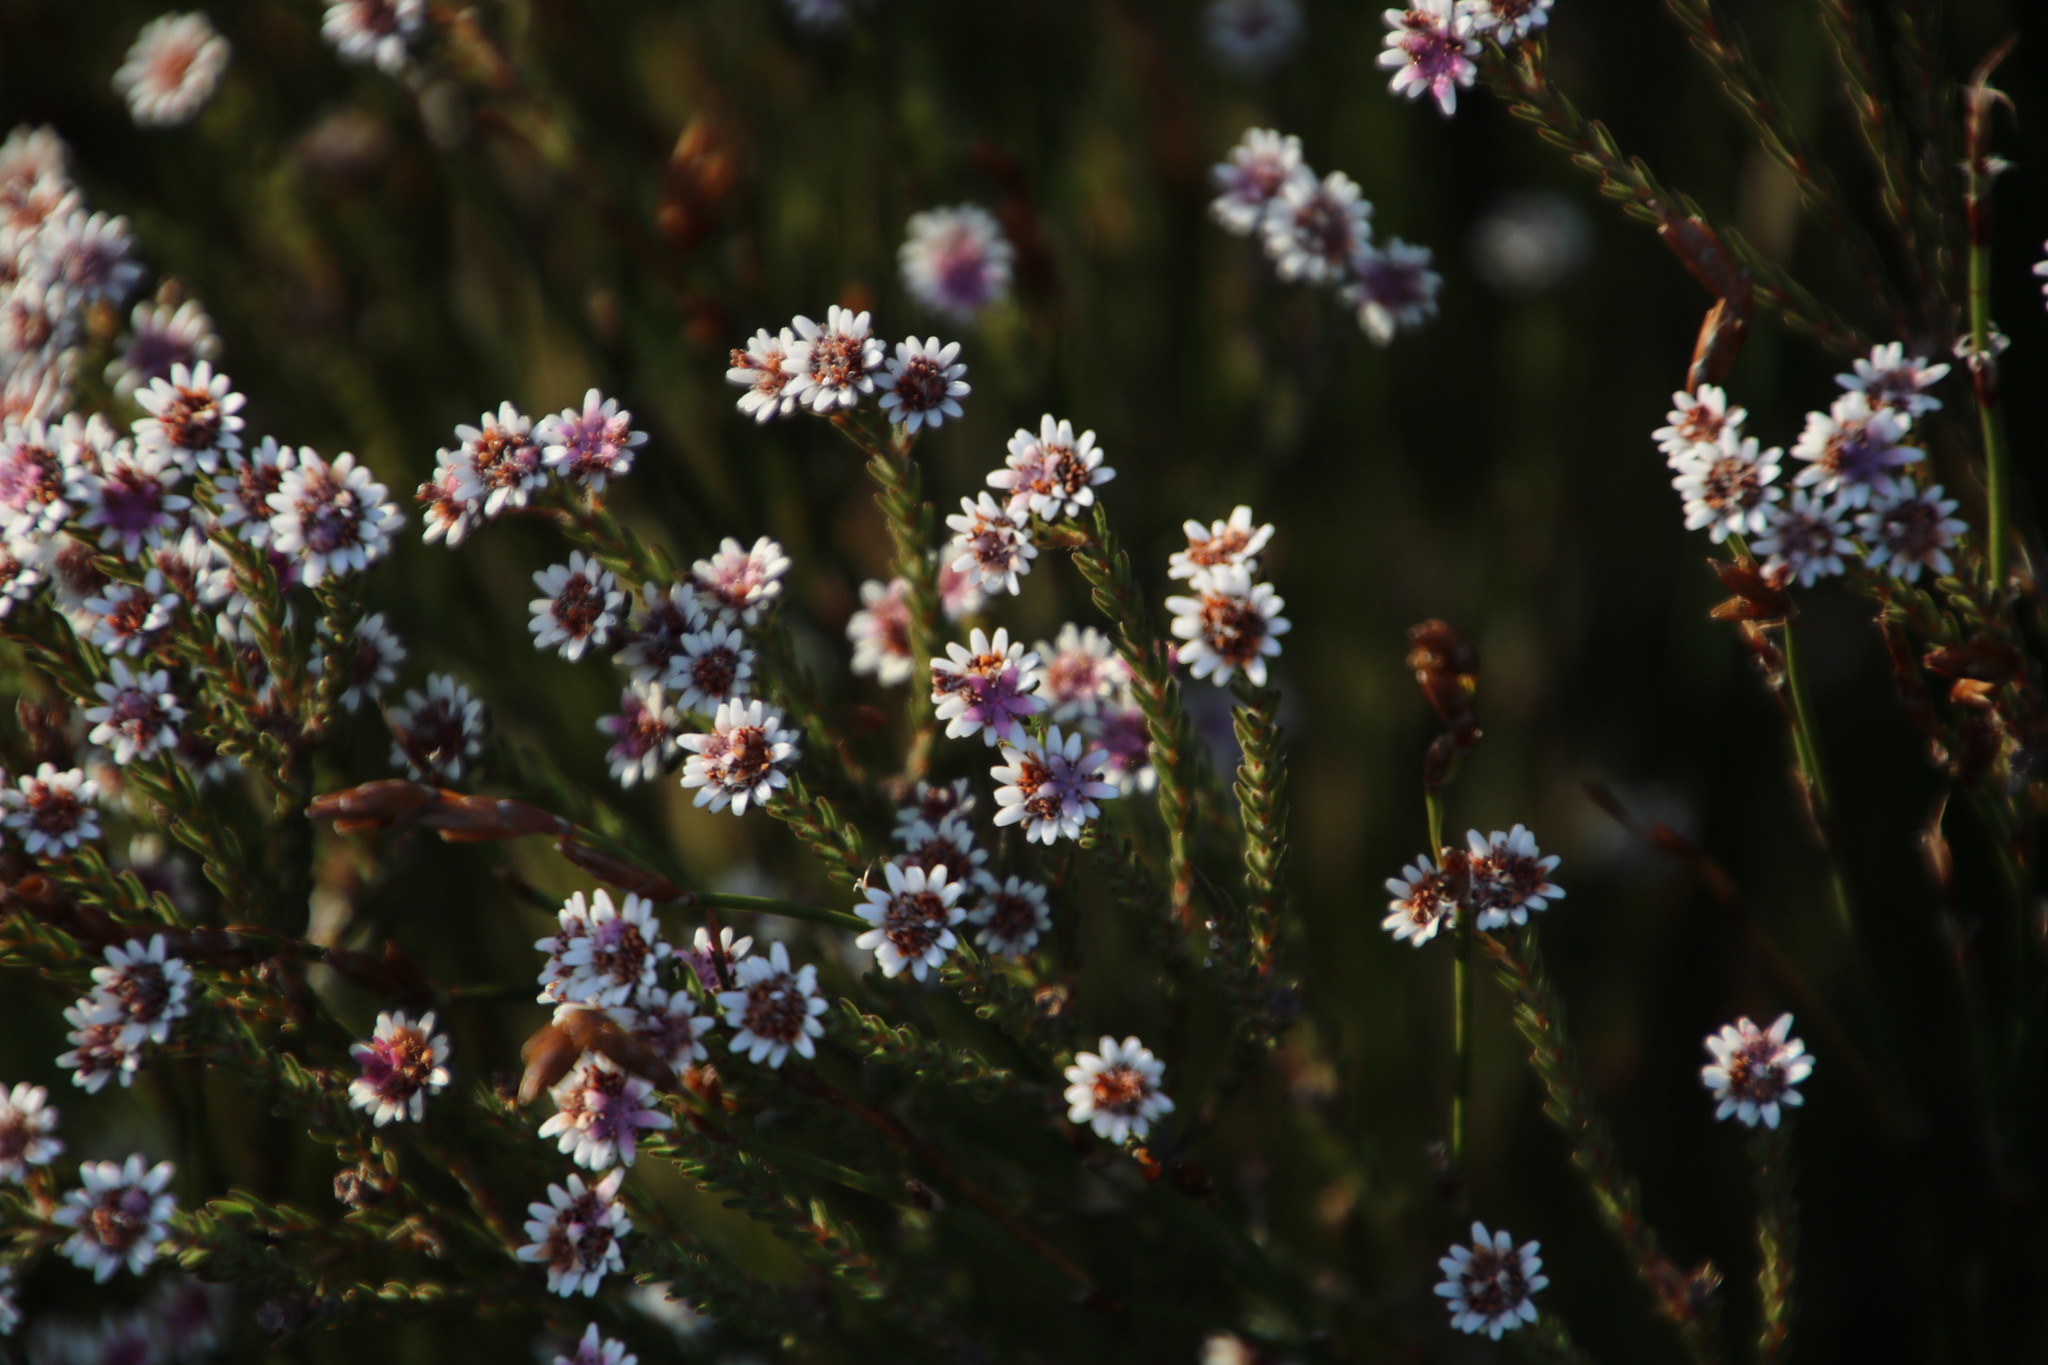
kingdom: Plantae
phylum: Tracheophyta
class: Magnoliopsida
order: Bruniales
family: Bruniaceae
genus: Staavia
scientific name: Staavia radiata
